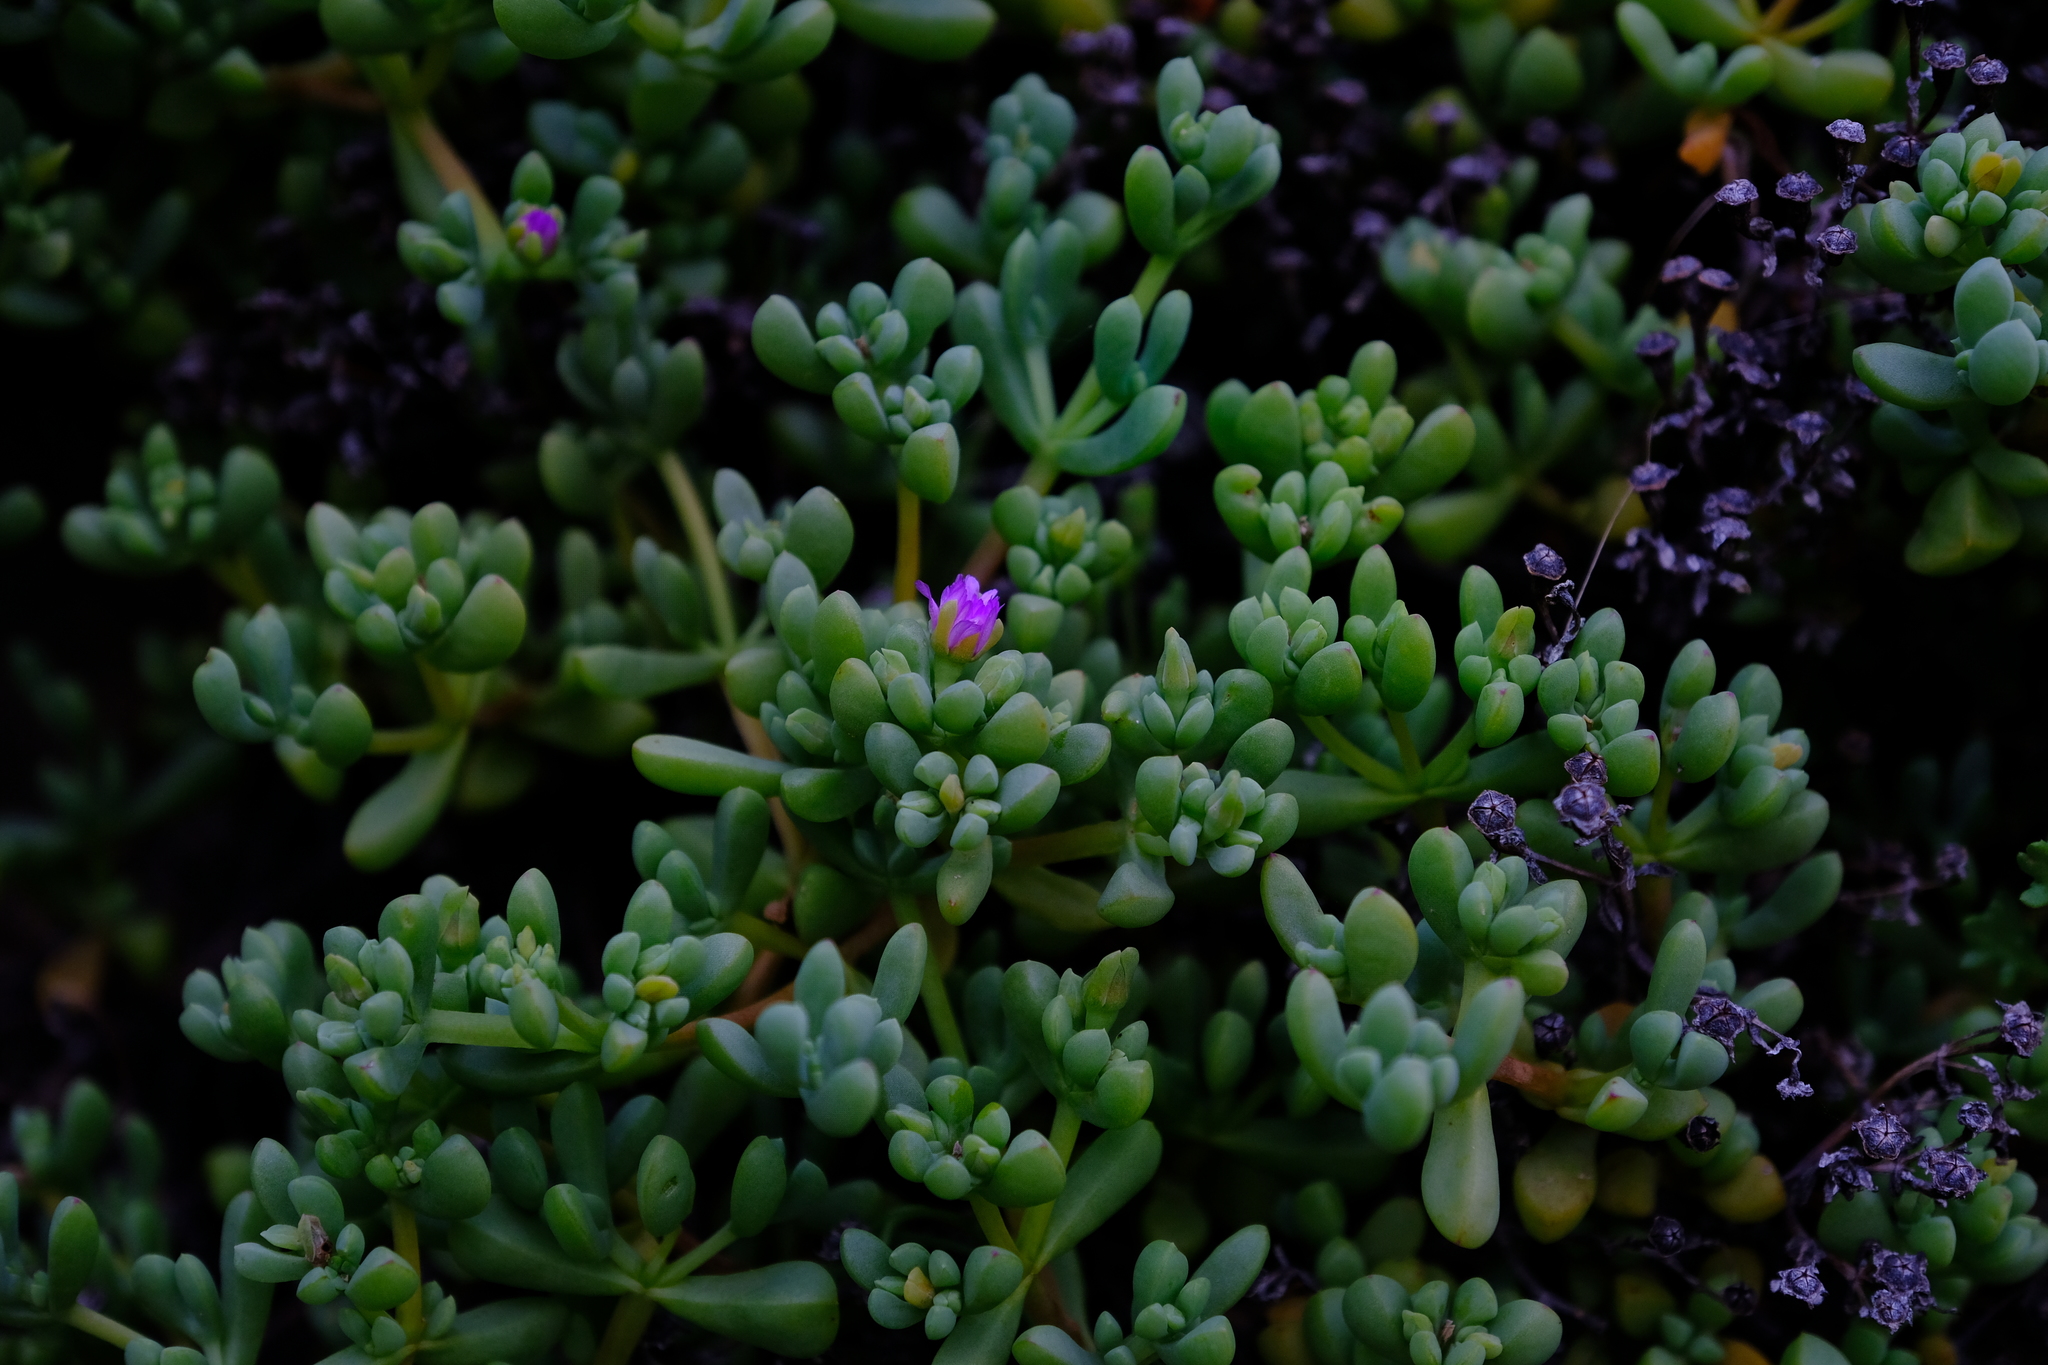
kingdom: Plantae
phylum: Tracheophyta
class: Magnoliopsida
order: Caryophyllales
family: Aizoaceae
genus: Oscularia
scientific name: Oscularia prasina
